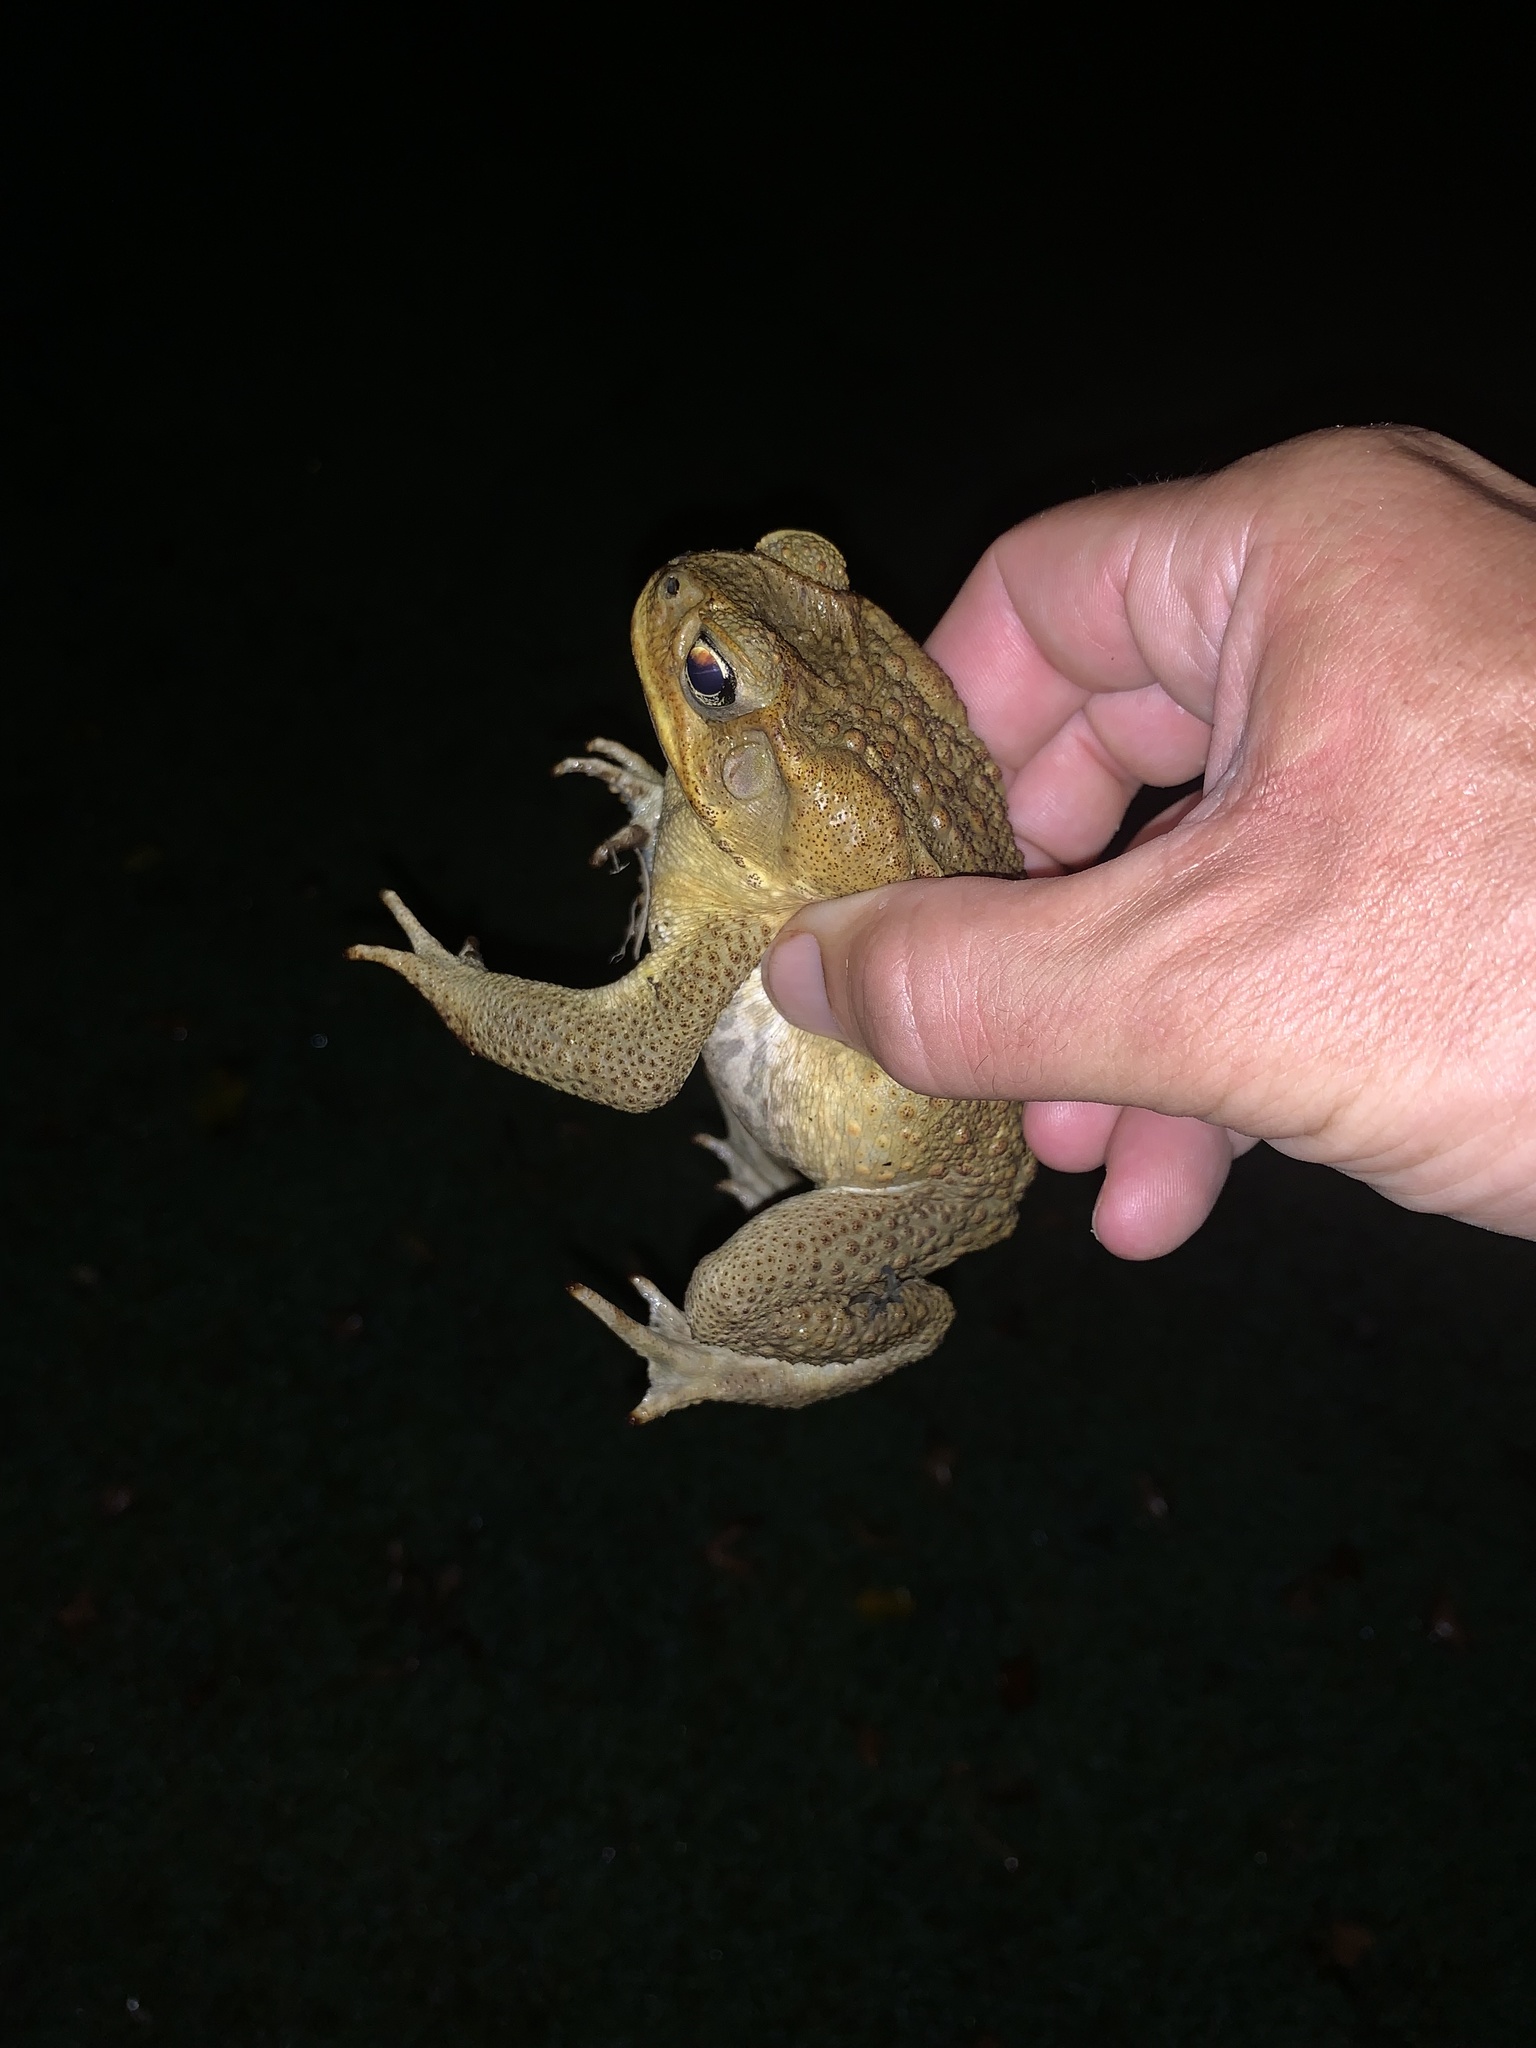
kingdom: Animalia
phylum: Chordata
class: Amphibia
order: Anura
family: Bufonidae
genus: Rhinella
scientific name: Rhinella marina
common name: Cane toad
